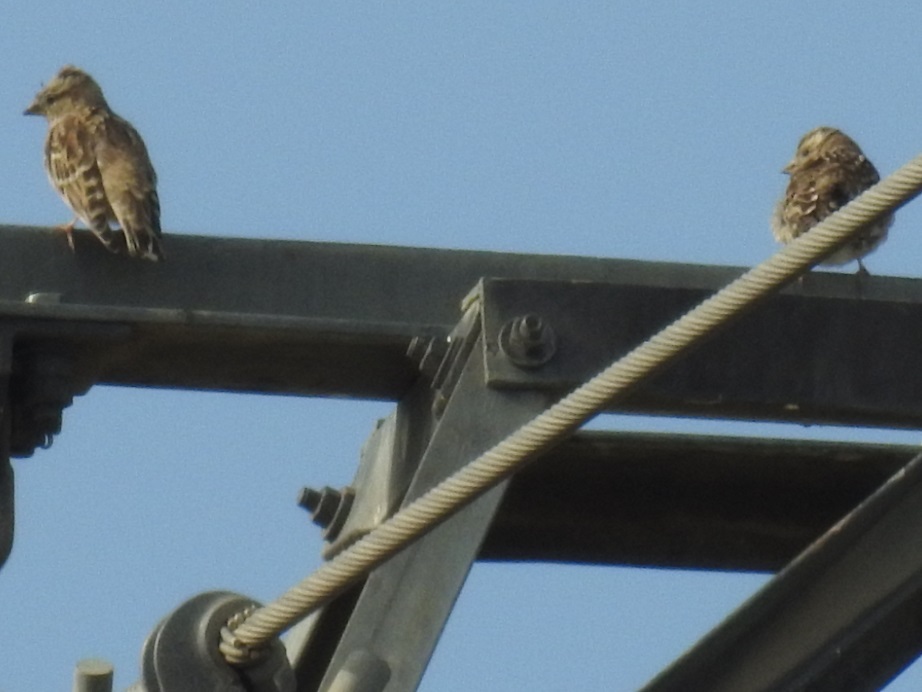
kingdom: Animalia
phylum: Chordata
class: Aves
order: Passeriformes
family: Passeridae
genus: Petronia
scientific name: Petronia petronia
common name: Rock sparrow
